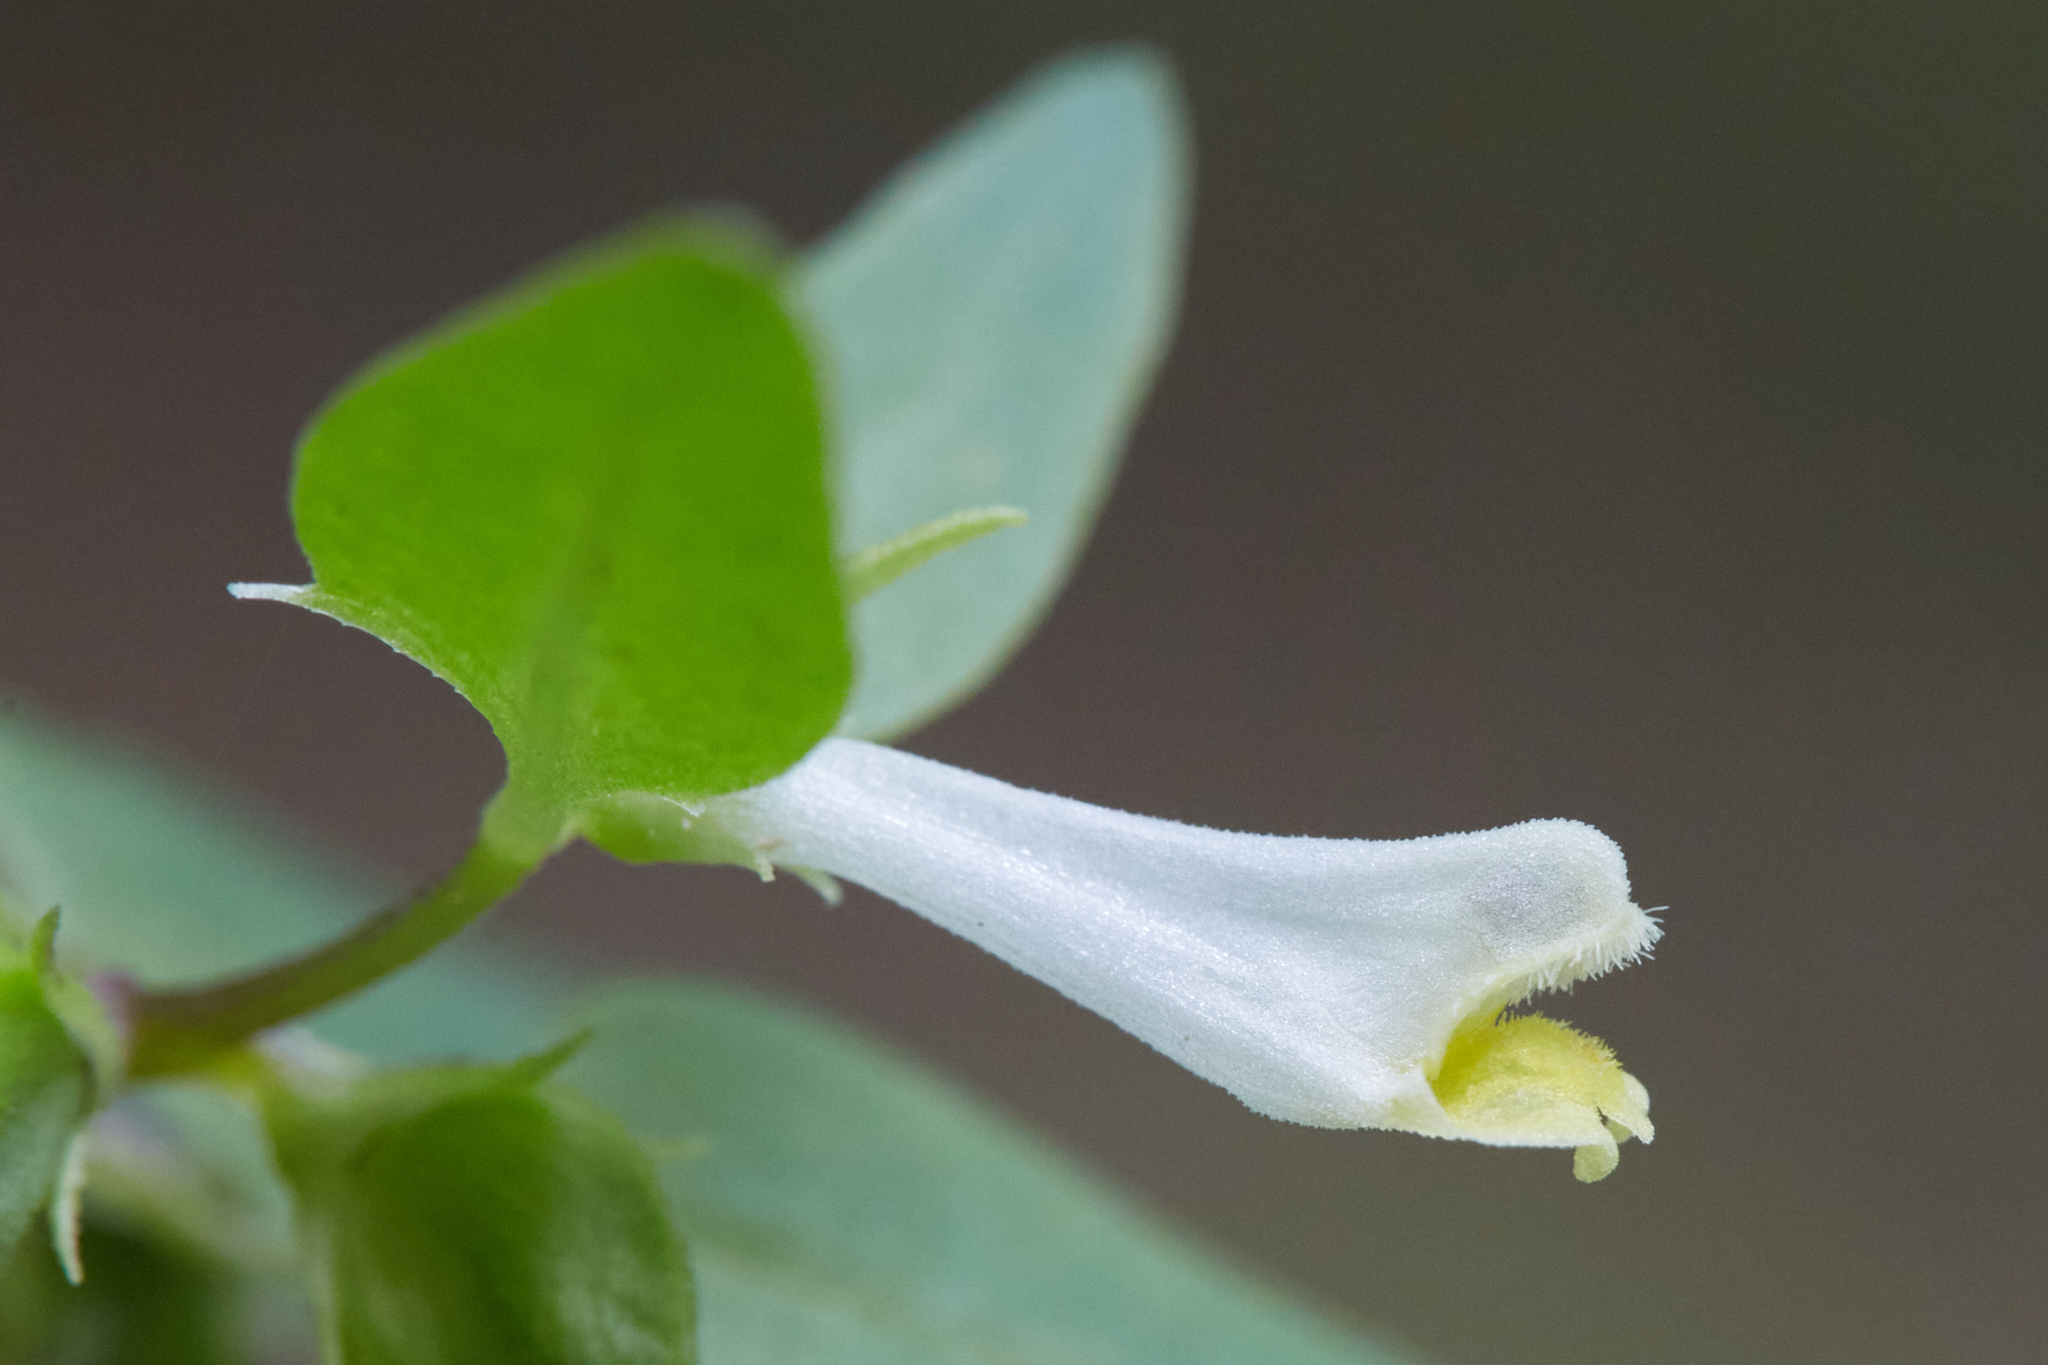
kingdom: Plantae
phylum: Tracheophyta
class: Magnoliopsida
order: Lamiales
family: Orobanchaceae
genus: Melampyrum
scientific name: Melampyrum lineare
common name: American cow-wheat
